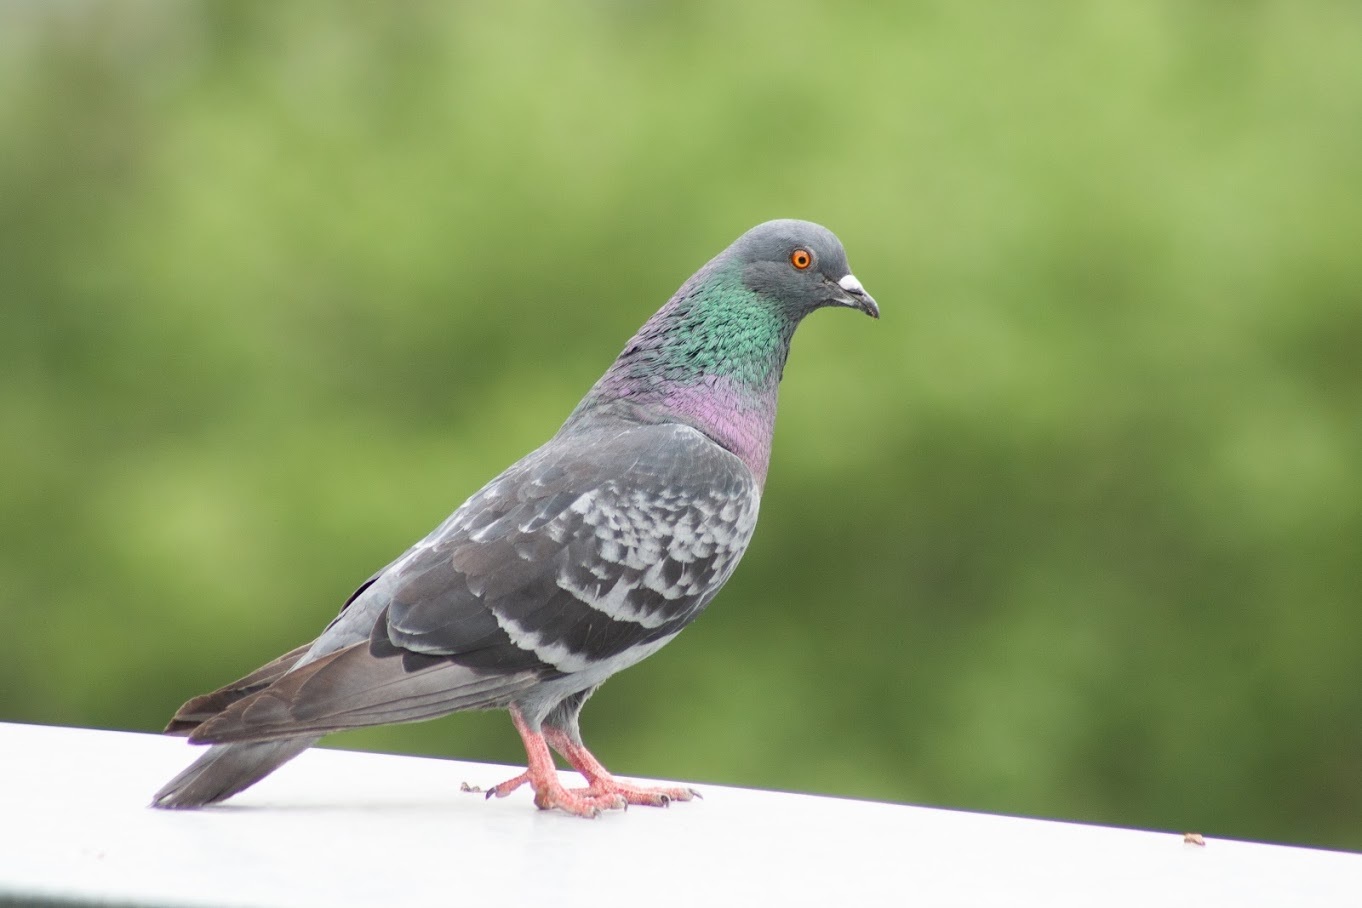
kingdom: Animalia
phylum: Chordata
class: Aves
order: Columbiformes
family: Columbidae
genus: Columba
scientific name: Columba livia
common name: Rock pigeon
